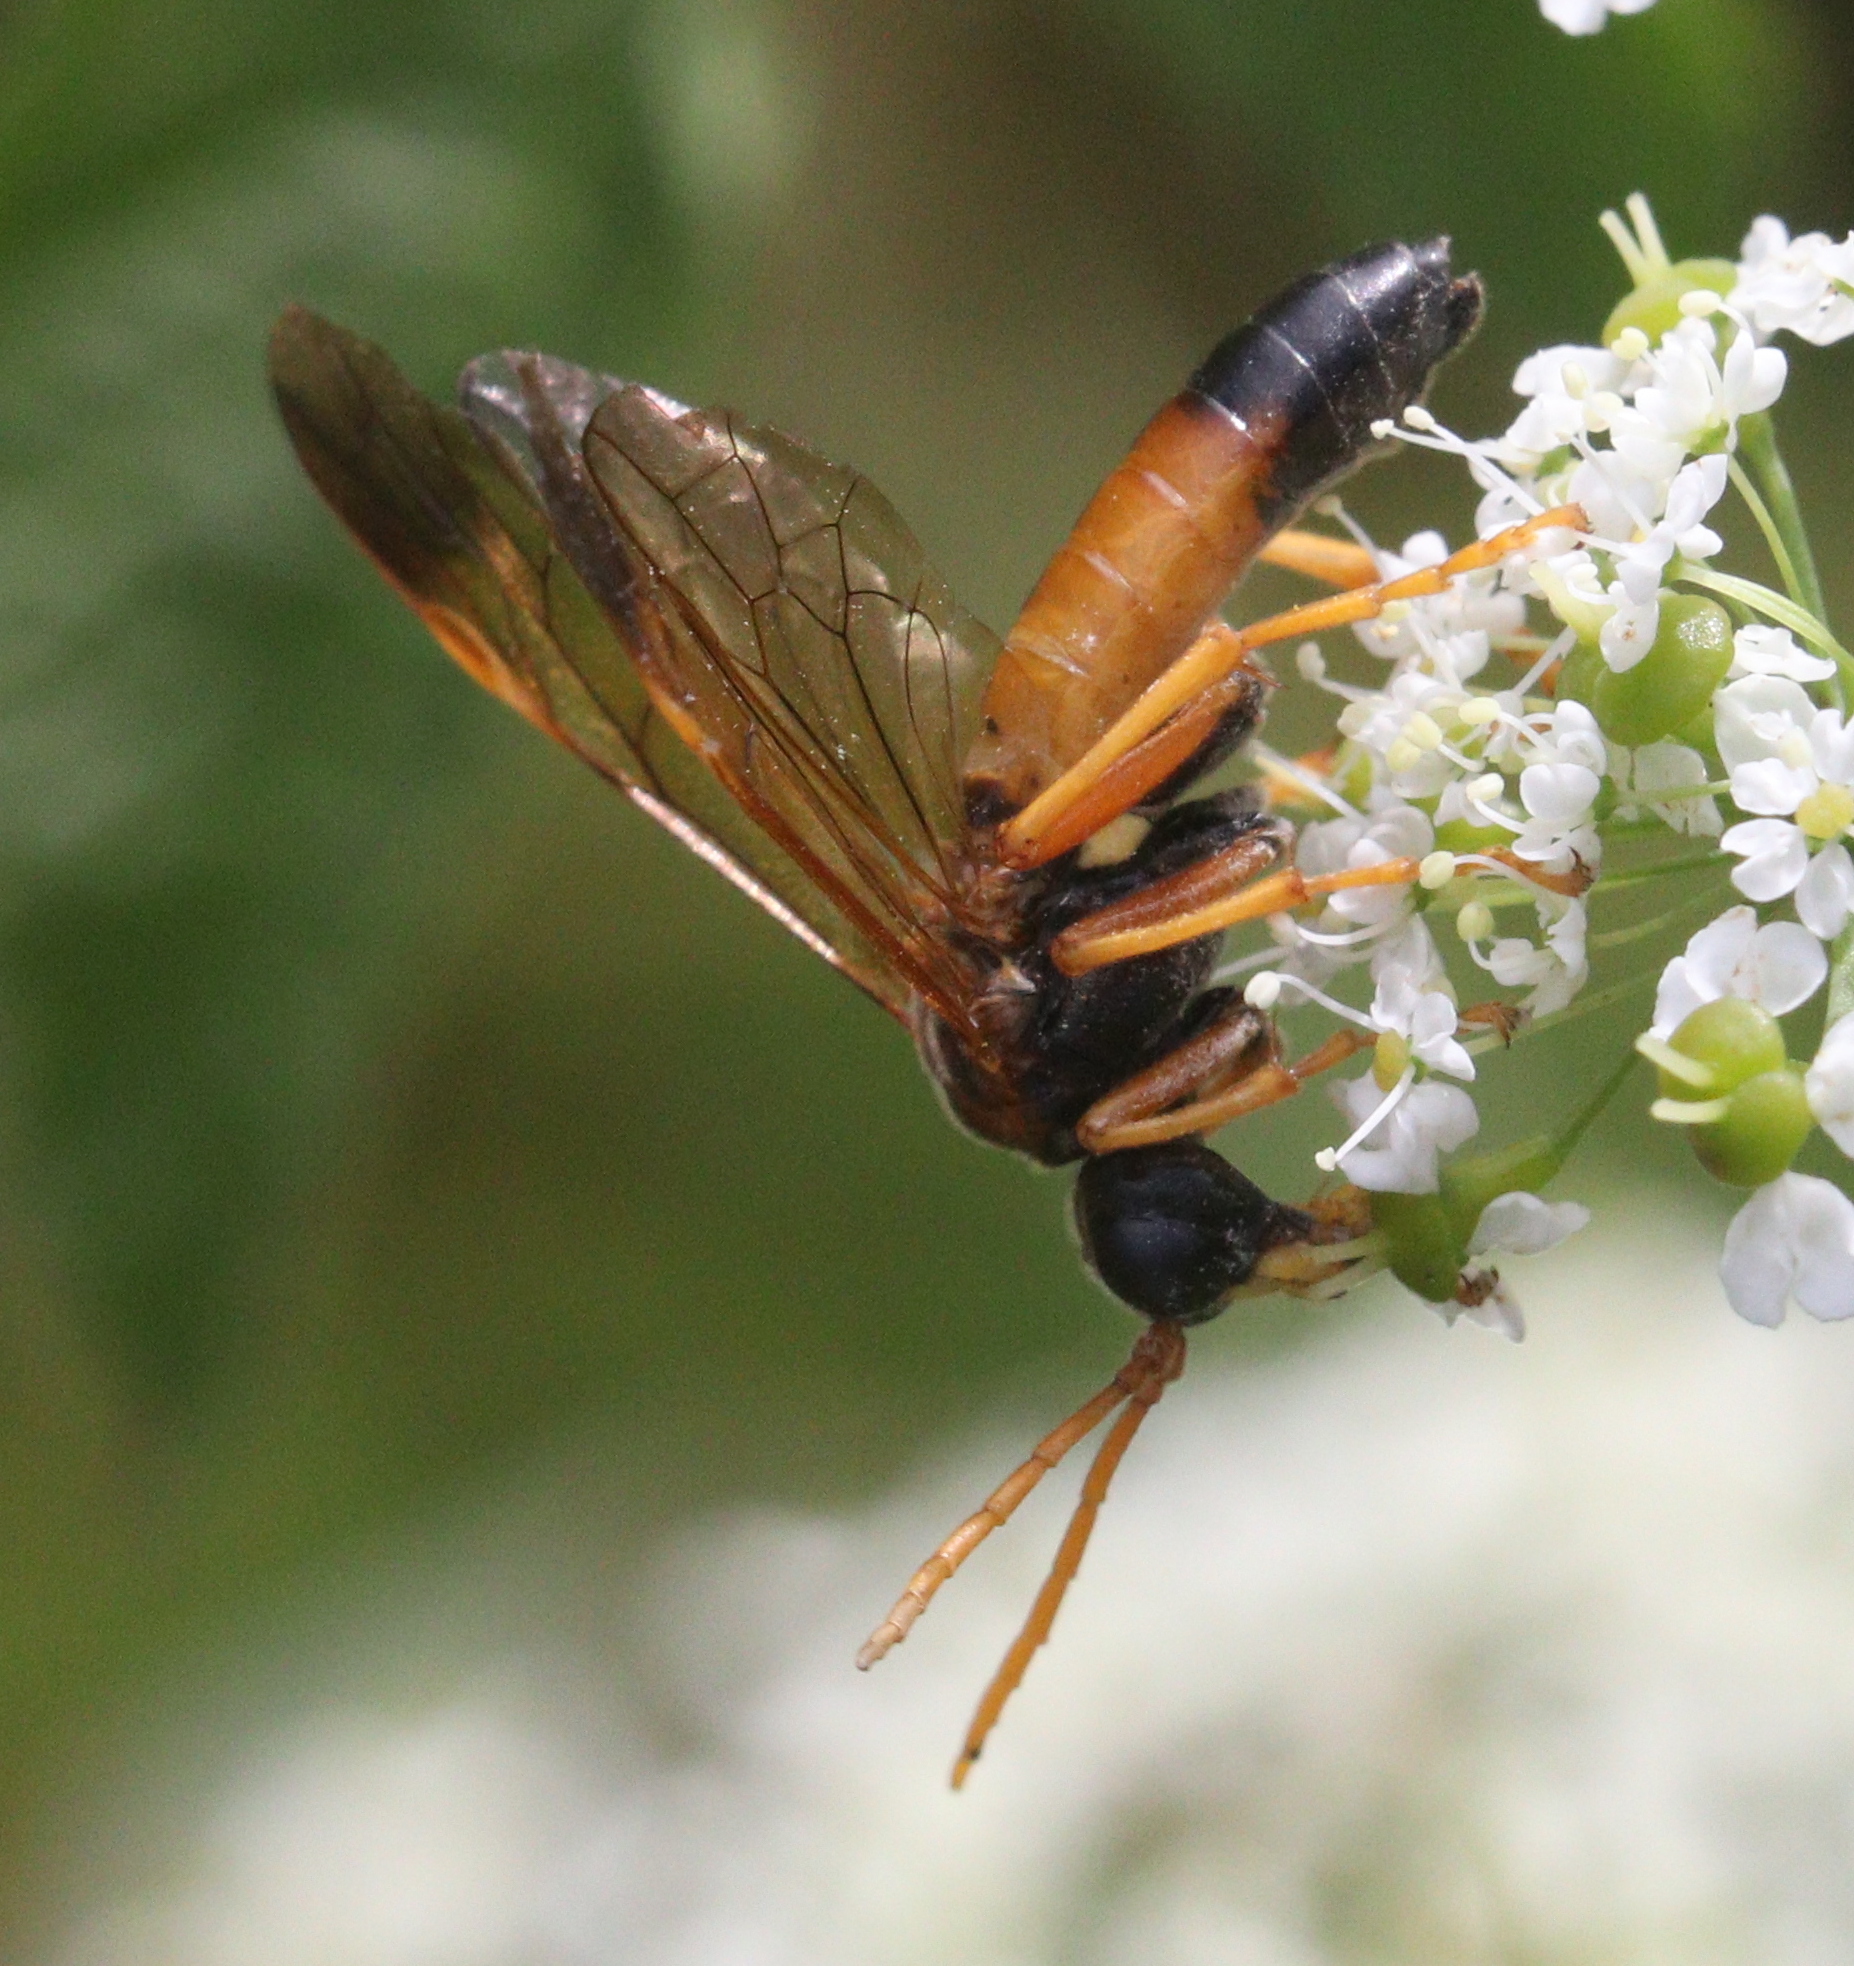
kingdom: Animalia
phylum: Arthropoda
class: Insecta
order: Hymenoptera
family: Tenthredinidae
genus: Tenthredo
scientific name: Tenthredo campestris
